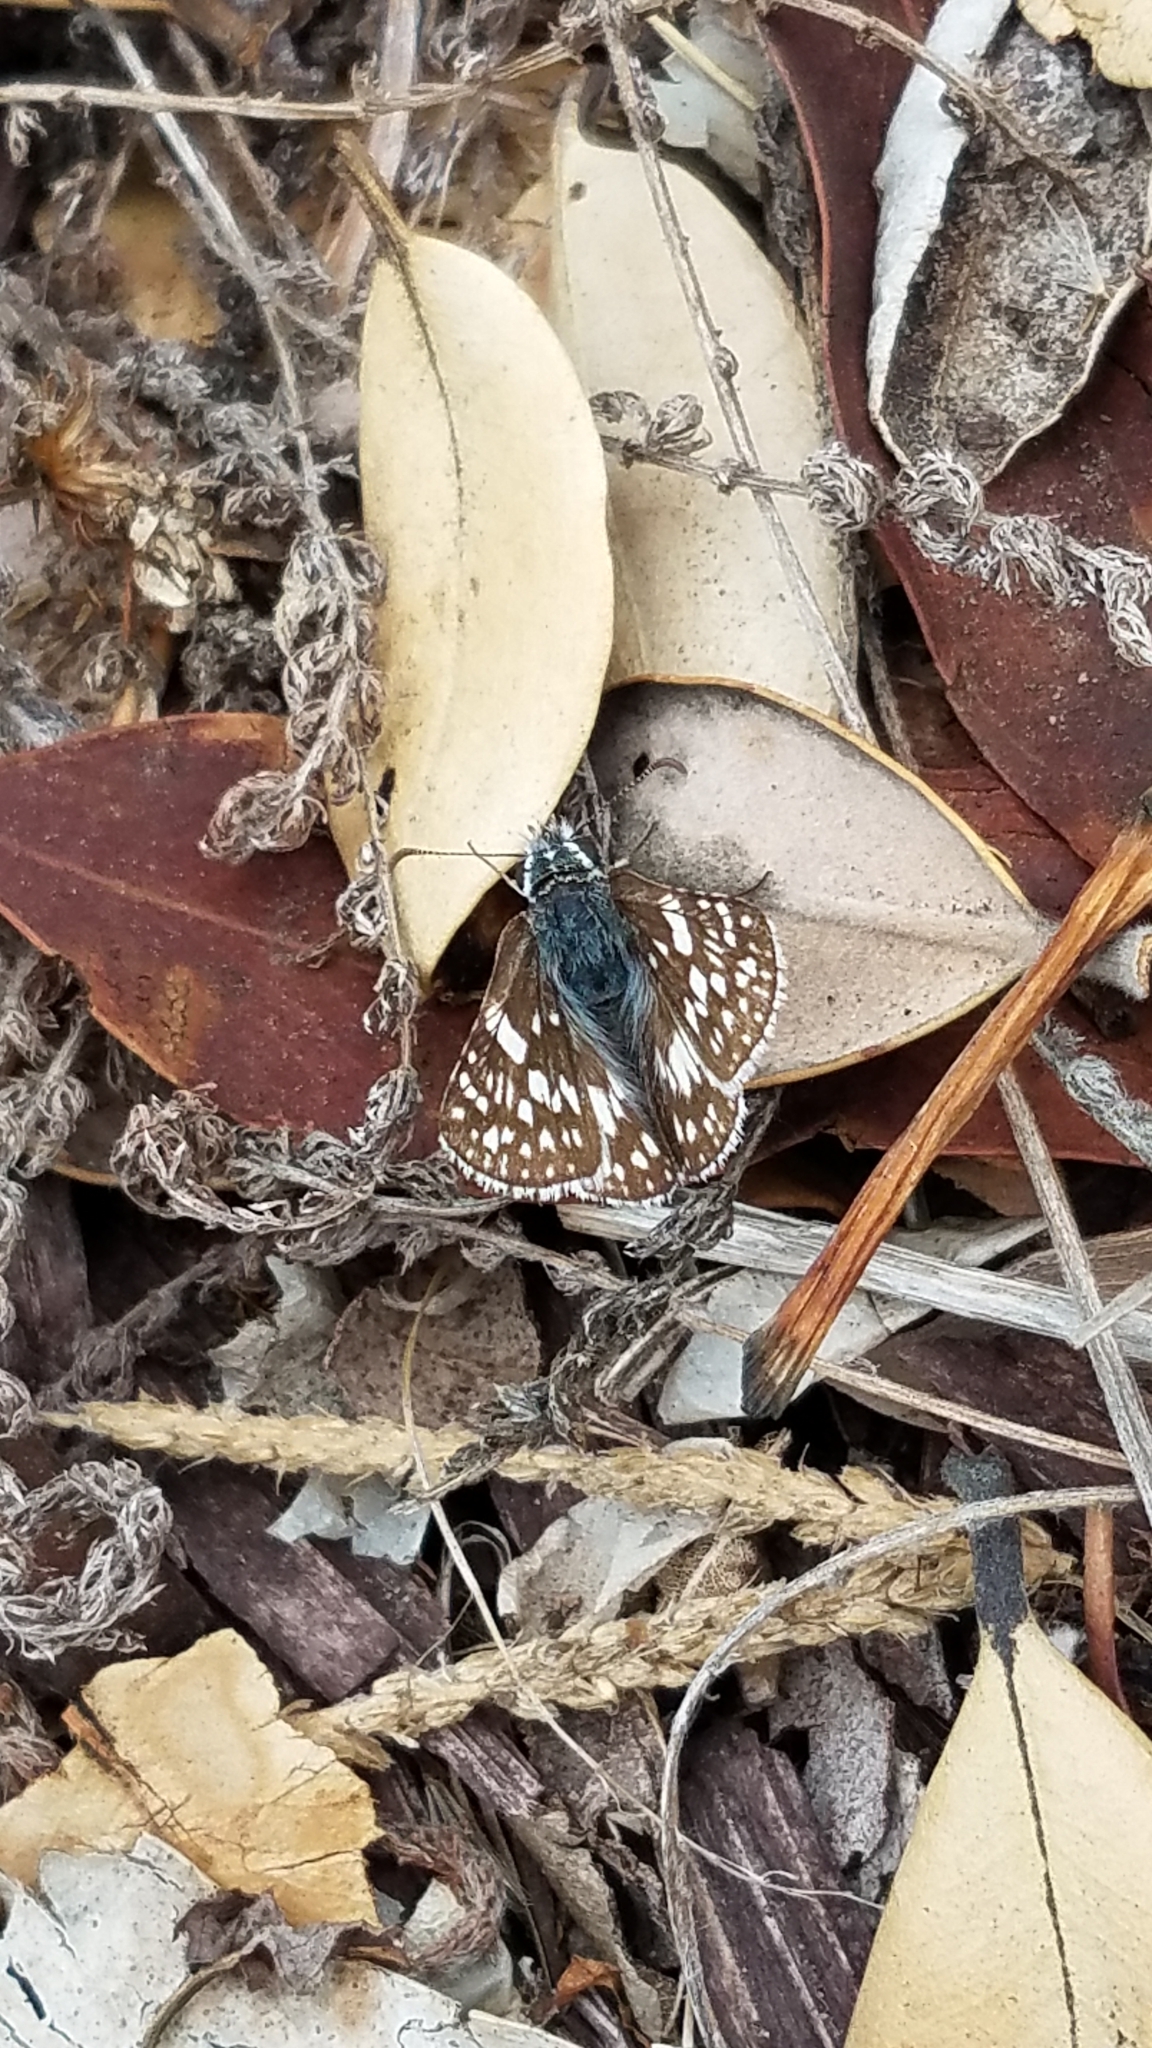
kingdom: Animalia
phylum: Arthropoda
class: Insecta
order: Lepidoptera
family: Hesperiidae
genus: Burnsius
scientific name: Burnsius communis
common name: Common checkered-skipper
